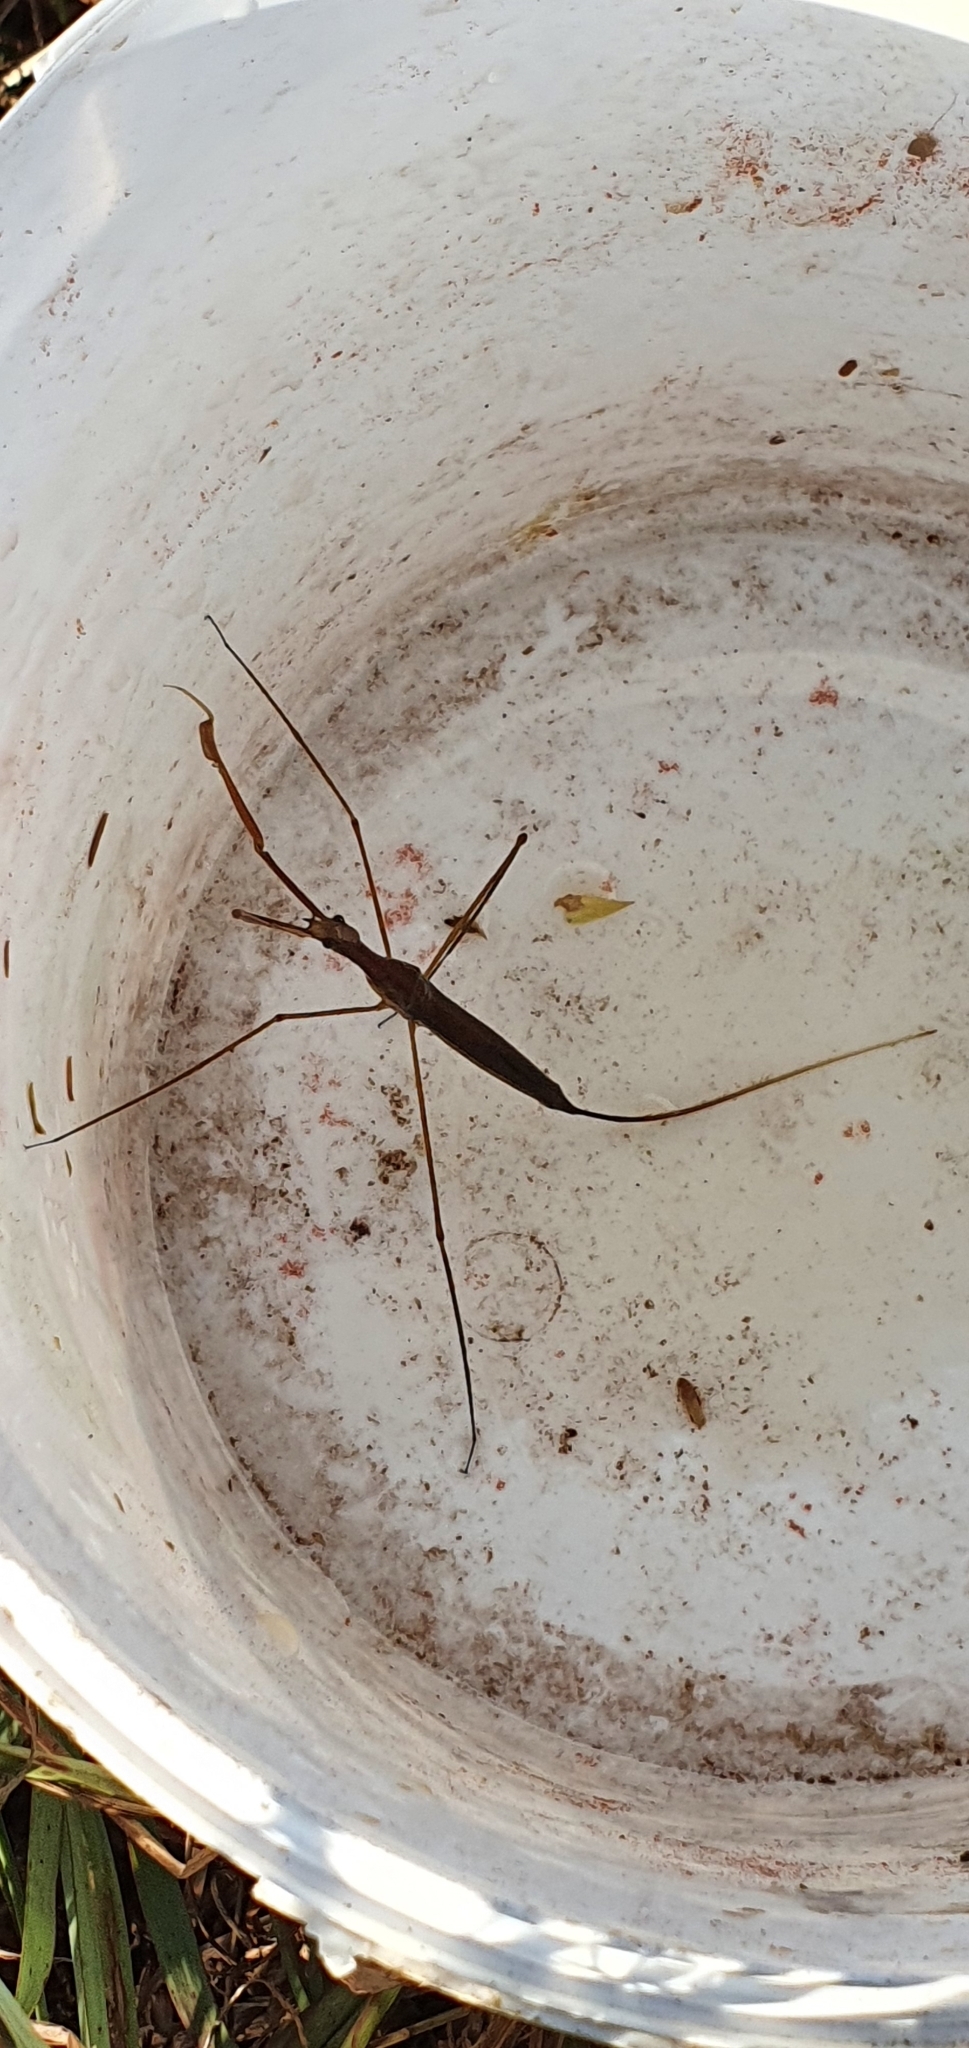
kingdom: Animalia
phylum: Arthropoda
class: Insecta
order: Hemiptera
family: Nepidae
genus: Ranatra
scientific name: Ranatra dispar
